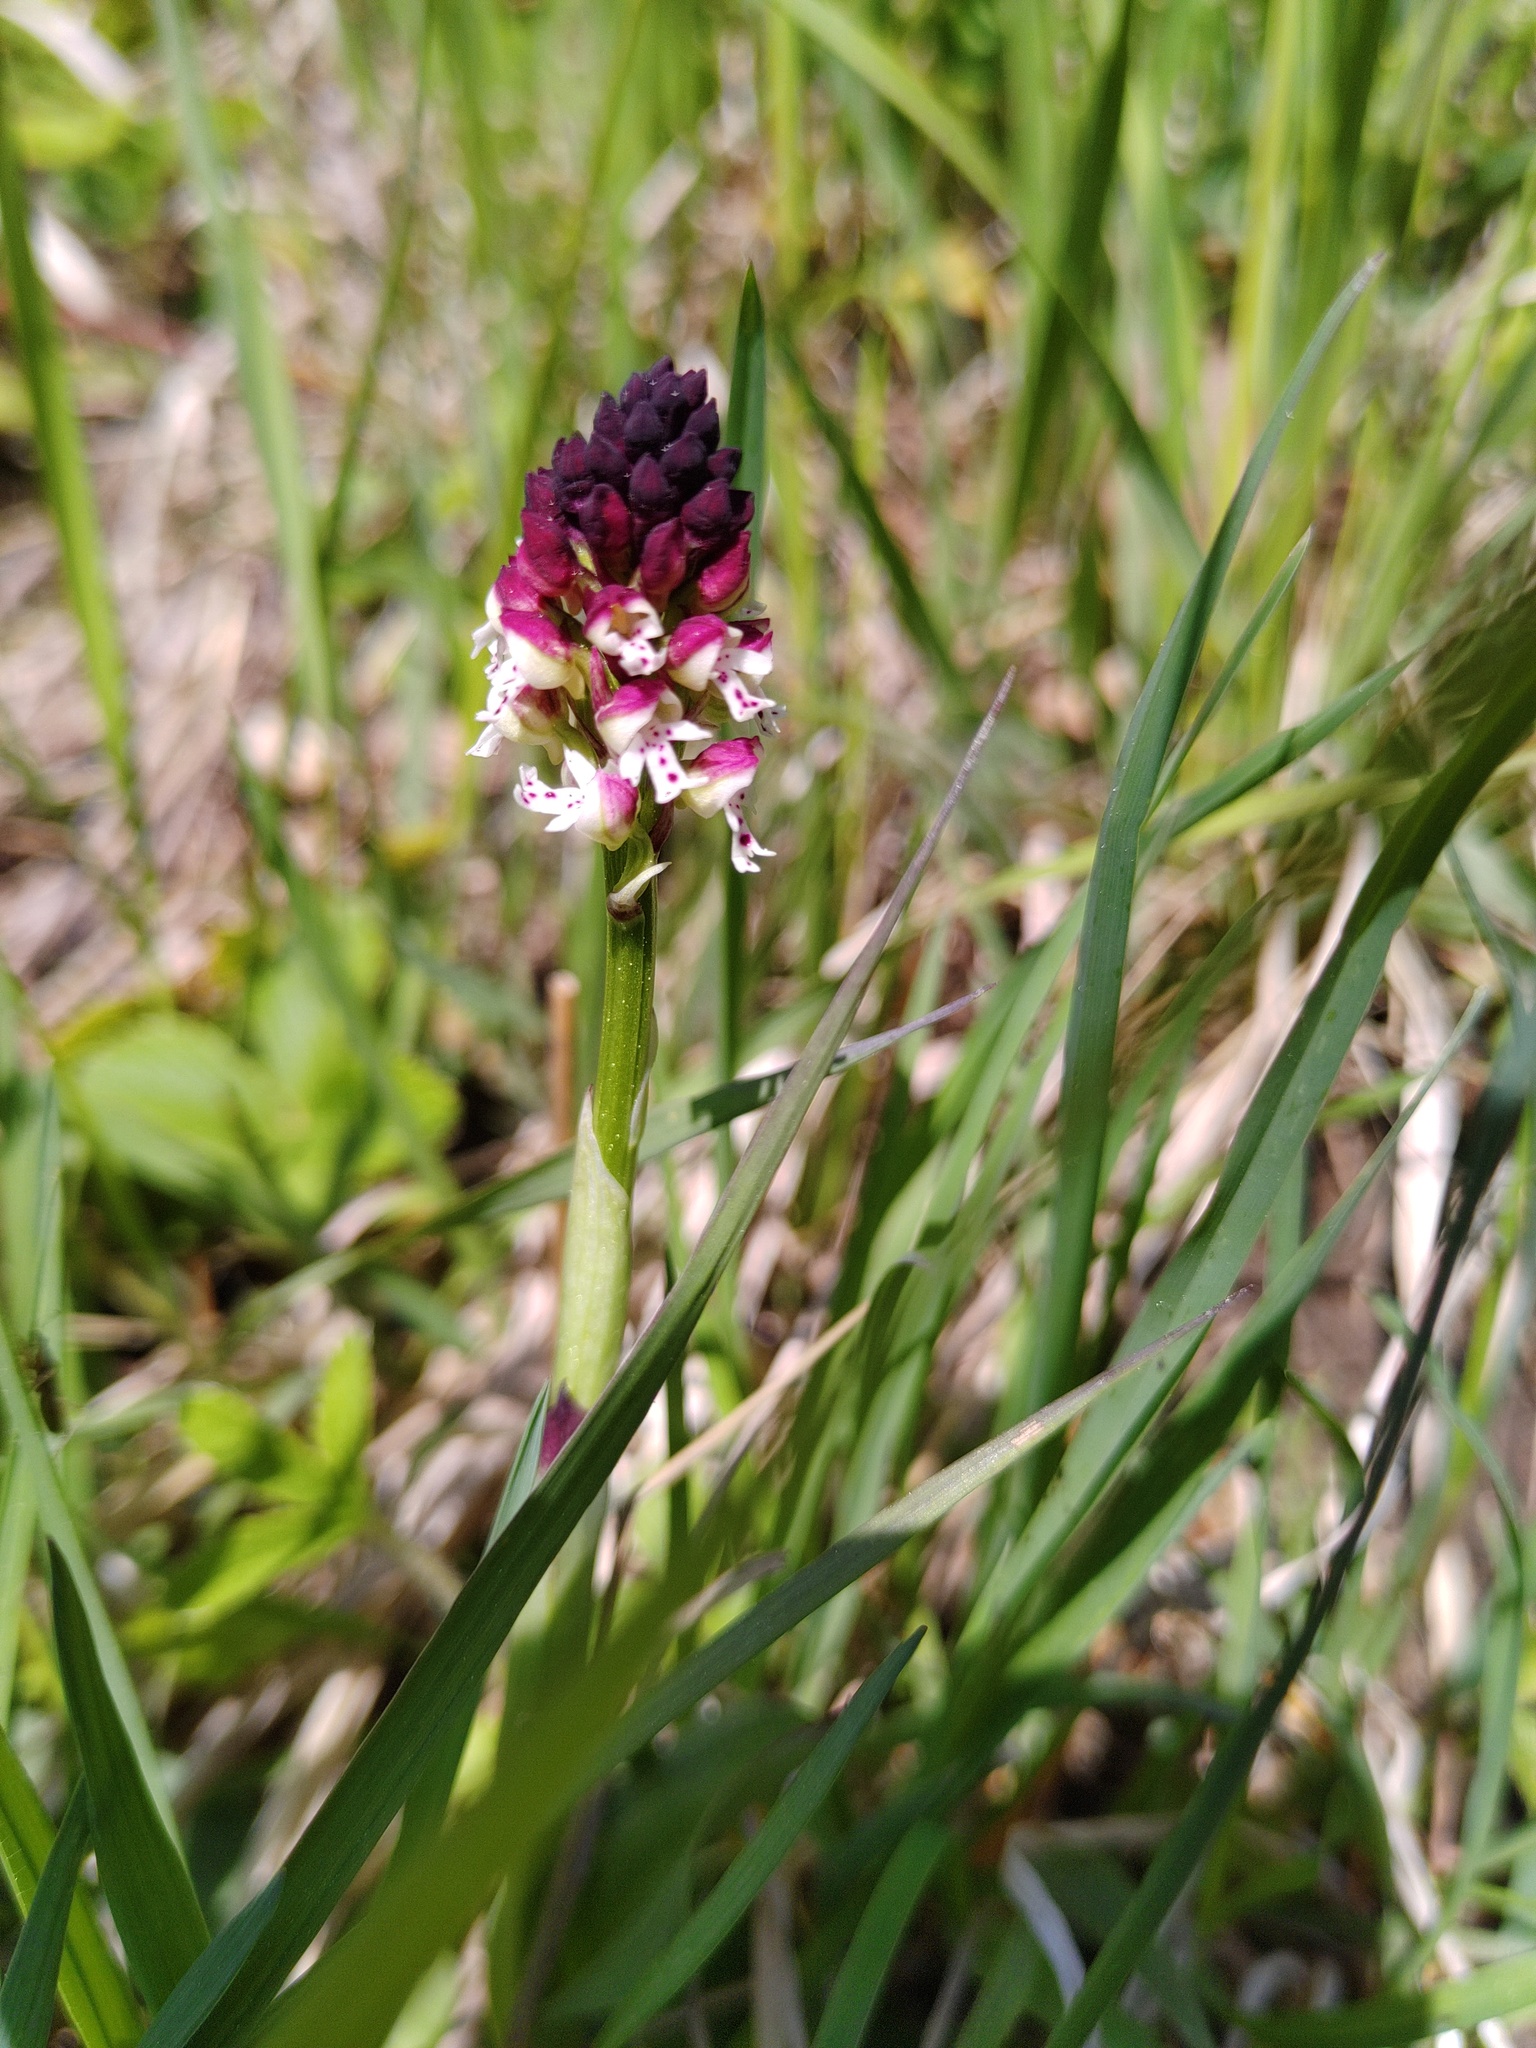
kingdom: Plantae
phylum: Tracheophyta
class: Liliopsida
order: Asparagales
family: Orchidaceae
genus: Neotinea
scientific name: Neotinea ustulata
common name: Burnt orchid
